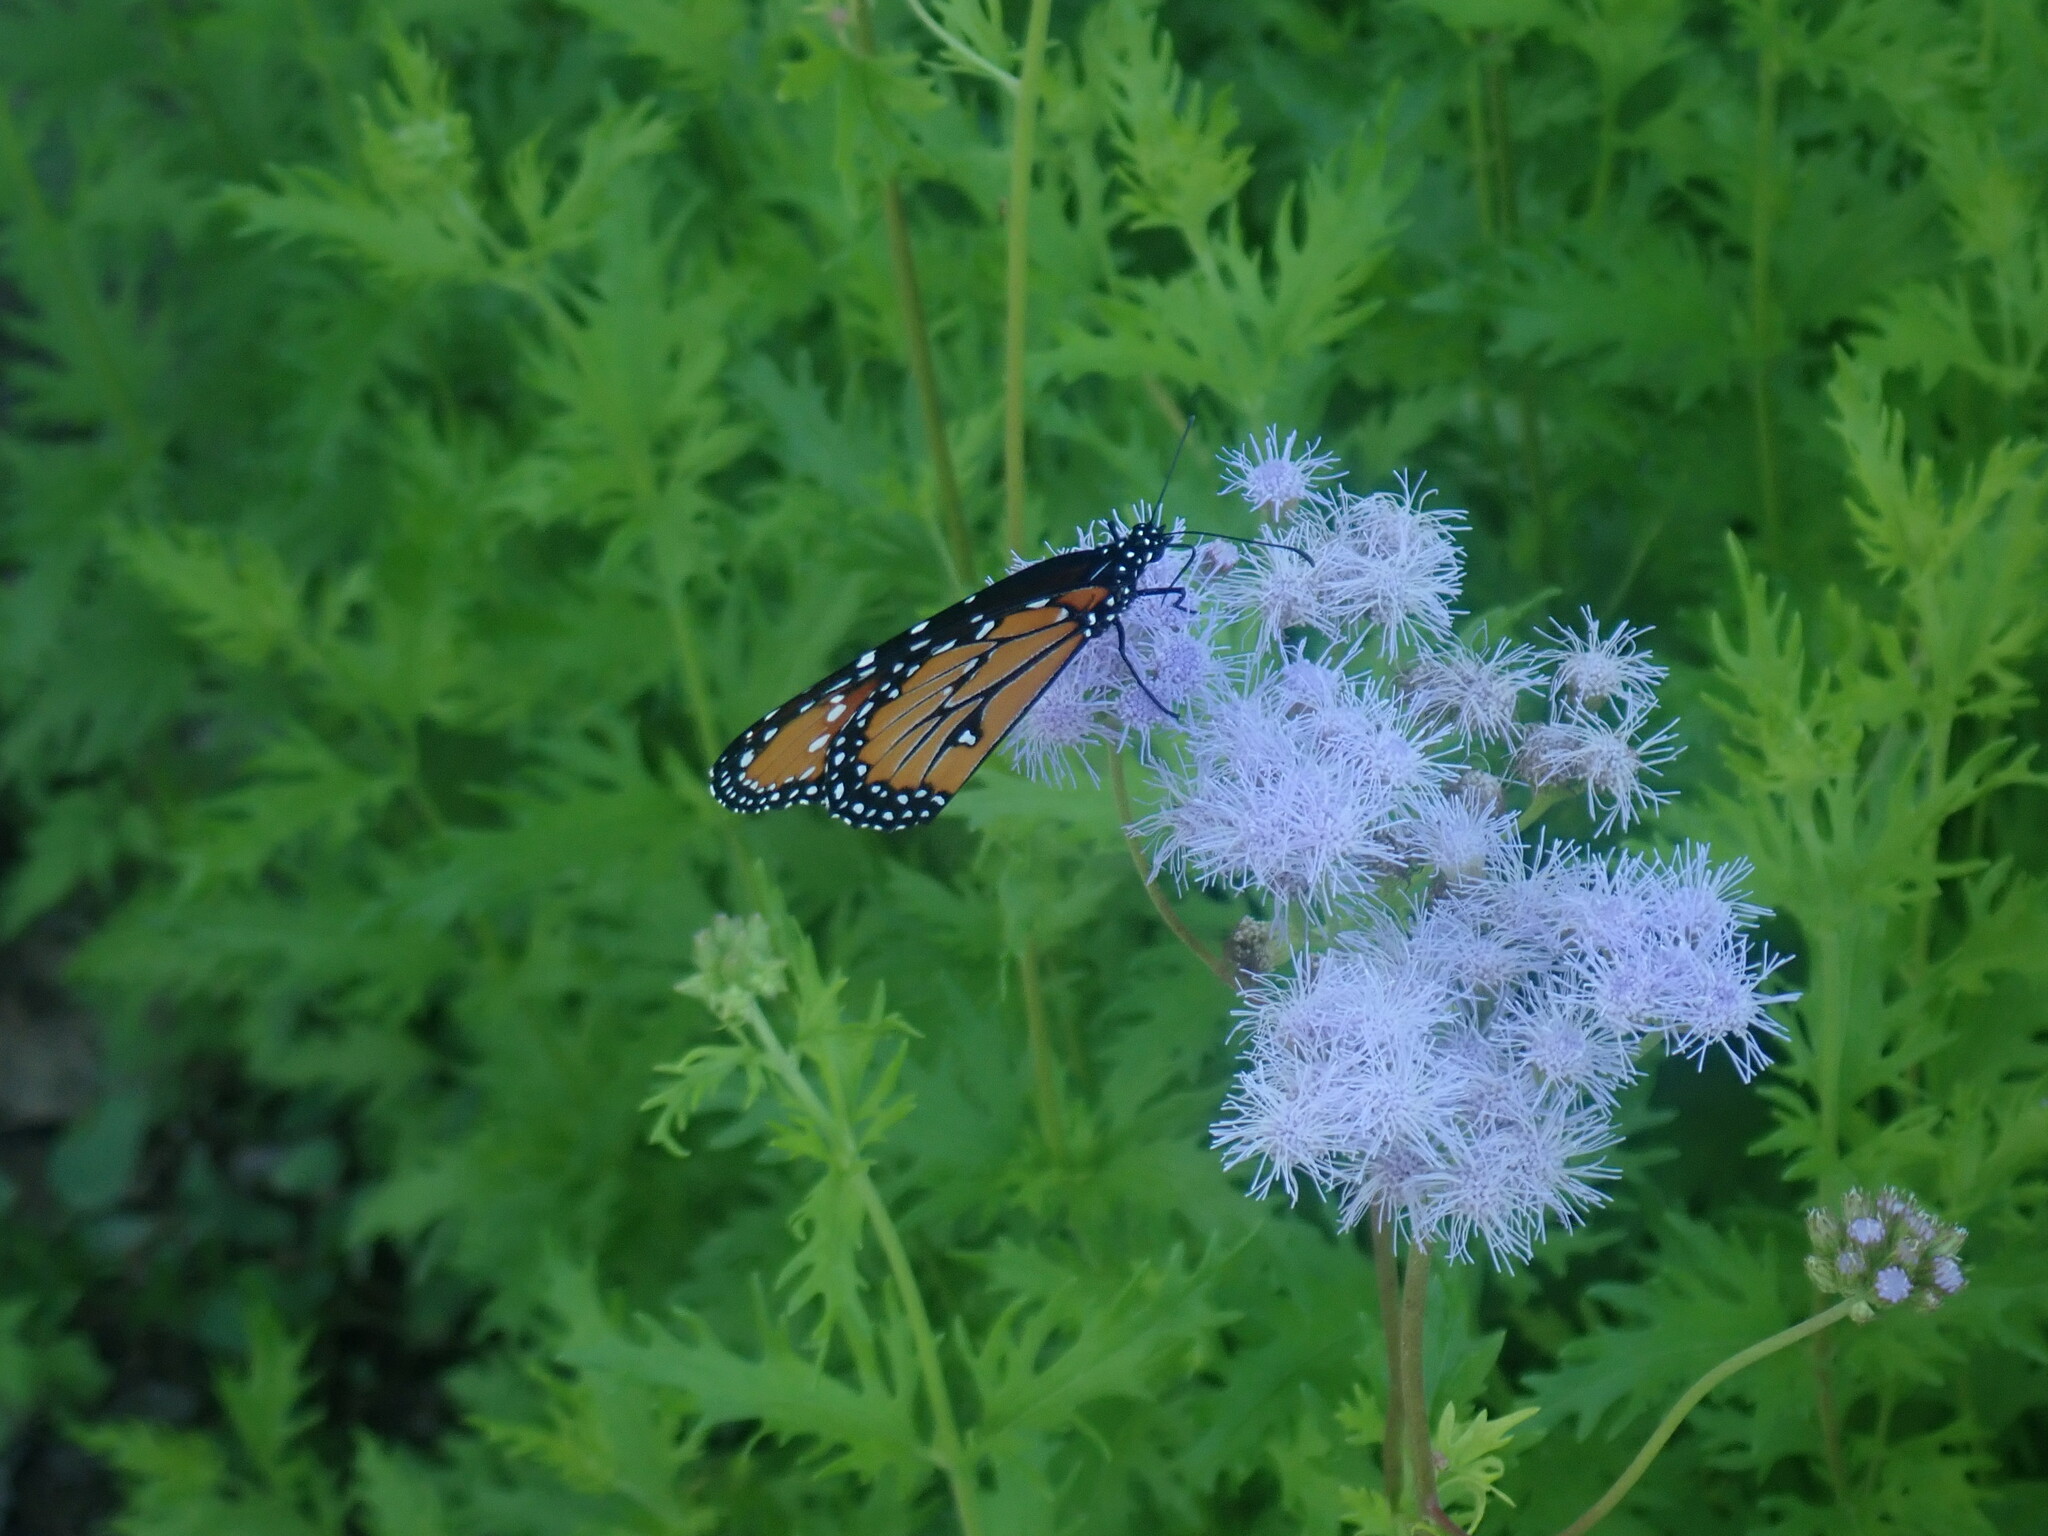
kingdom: Animalia
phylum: Arthropoda
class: Insecta
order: Lepidoptera
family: Nymphalidae
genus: Danaus
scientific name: Danaus gilippus
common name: Queen
